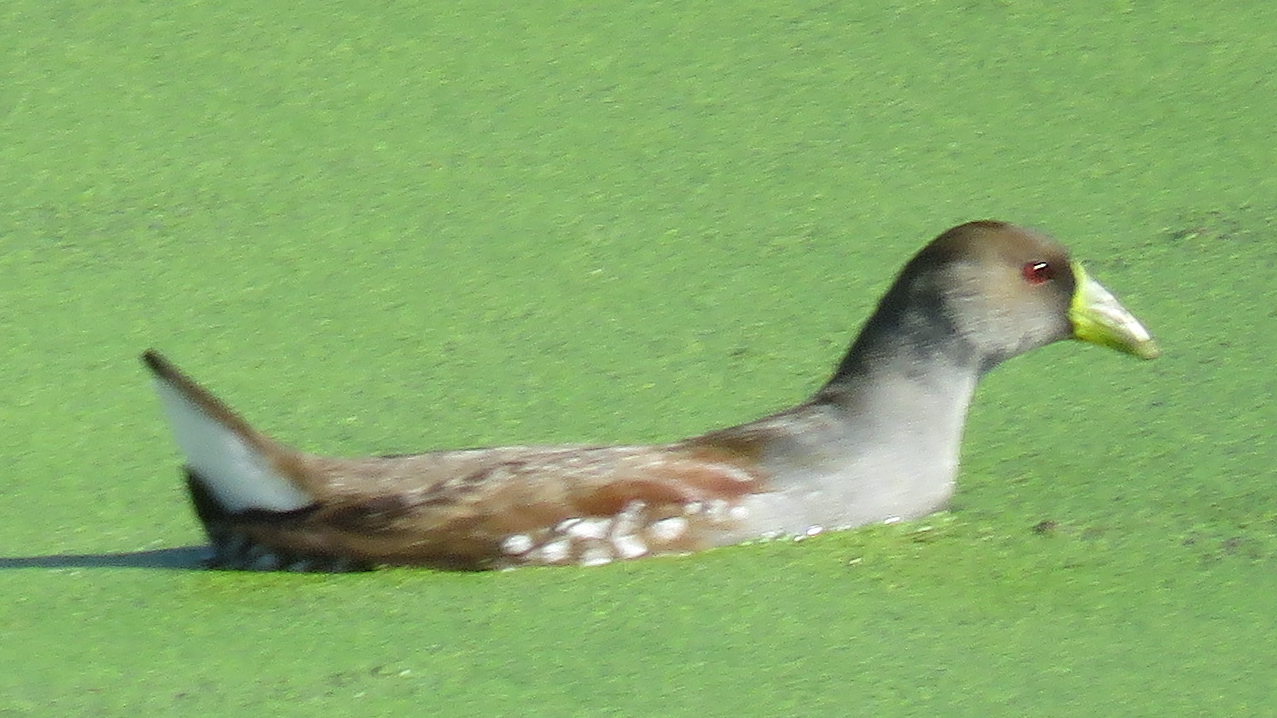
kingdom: Animalia
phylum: Chordata
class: Aves
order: Gruiformes
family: Rallidae
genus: Gallinula
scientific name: Gallinula melanops
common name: Spot-flanked gallinule
